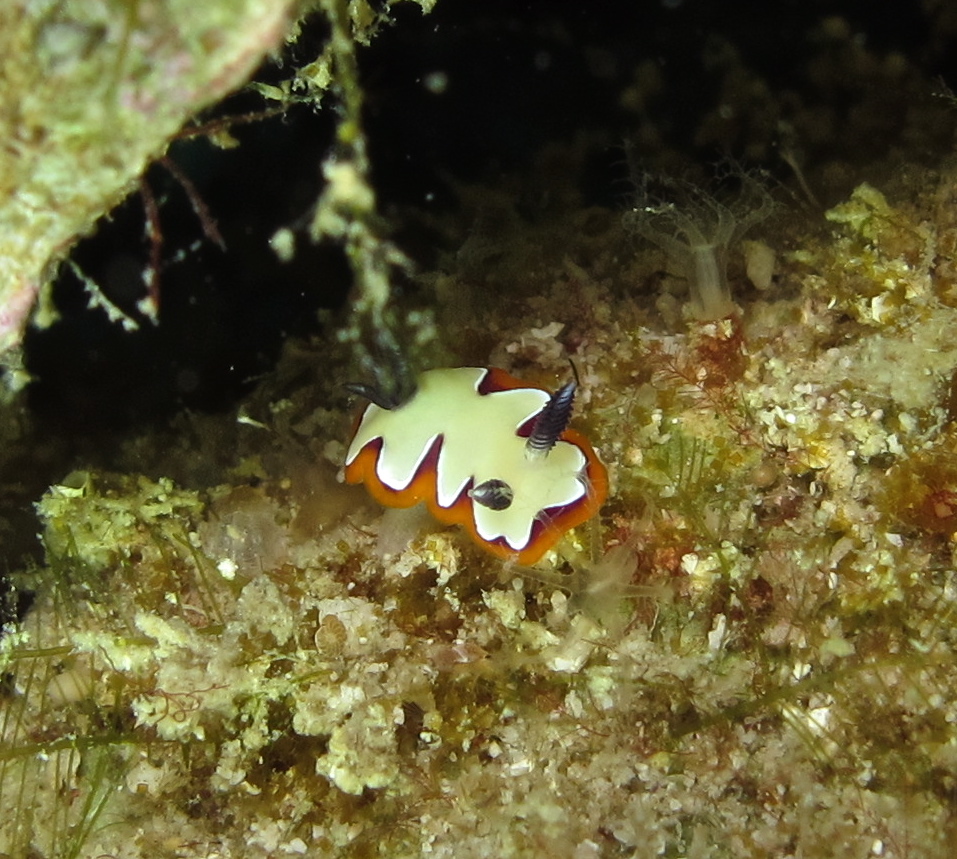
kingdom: Animalia
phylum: Mollusca
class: Gastropoda
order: Nudibranchia
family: Chromodorididae
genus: Goniobranchus
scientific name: Goniobranchus fidelis
